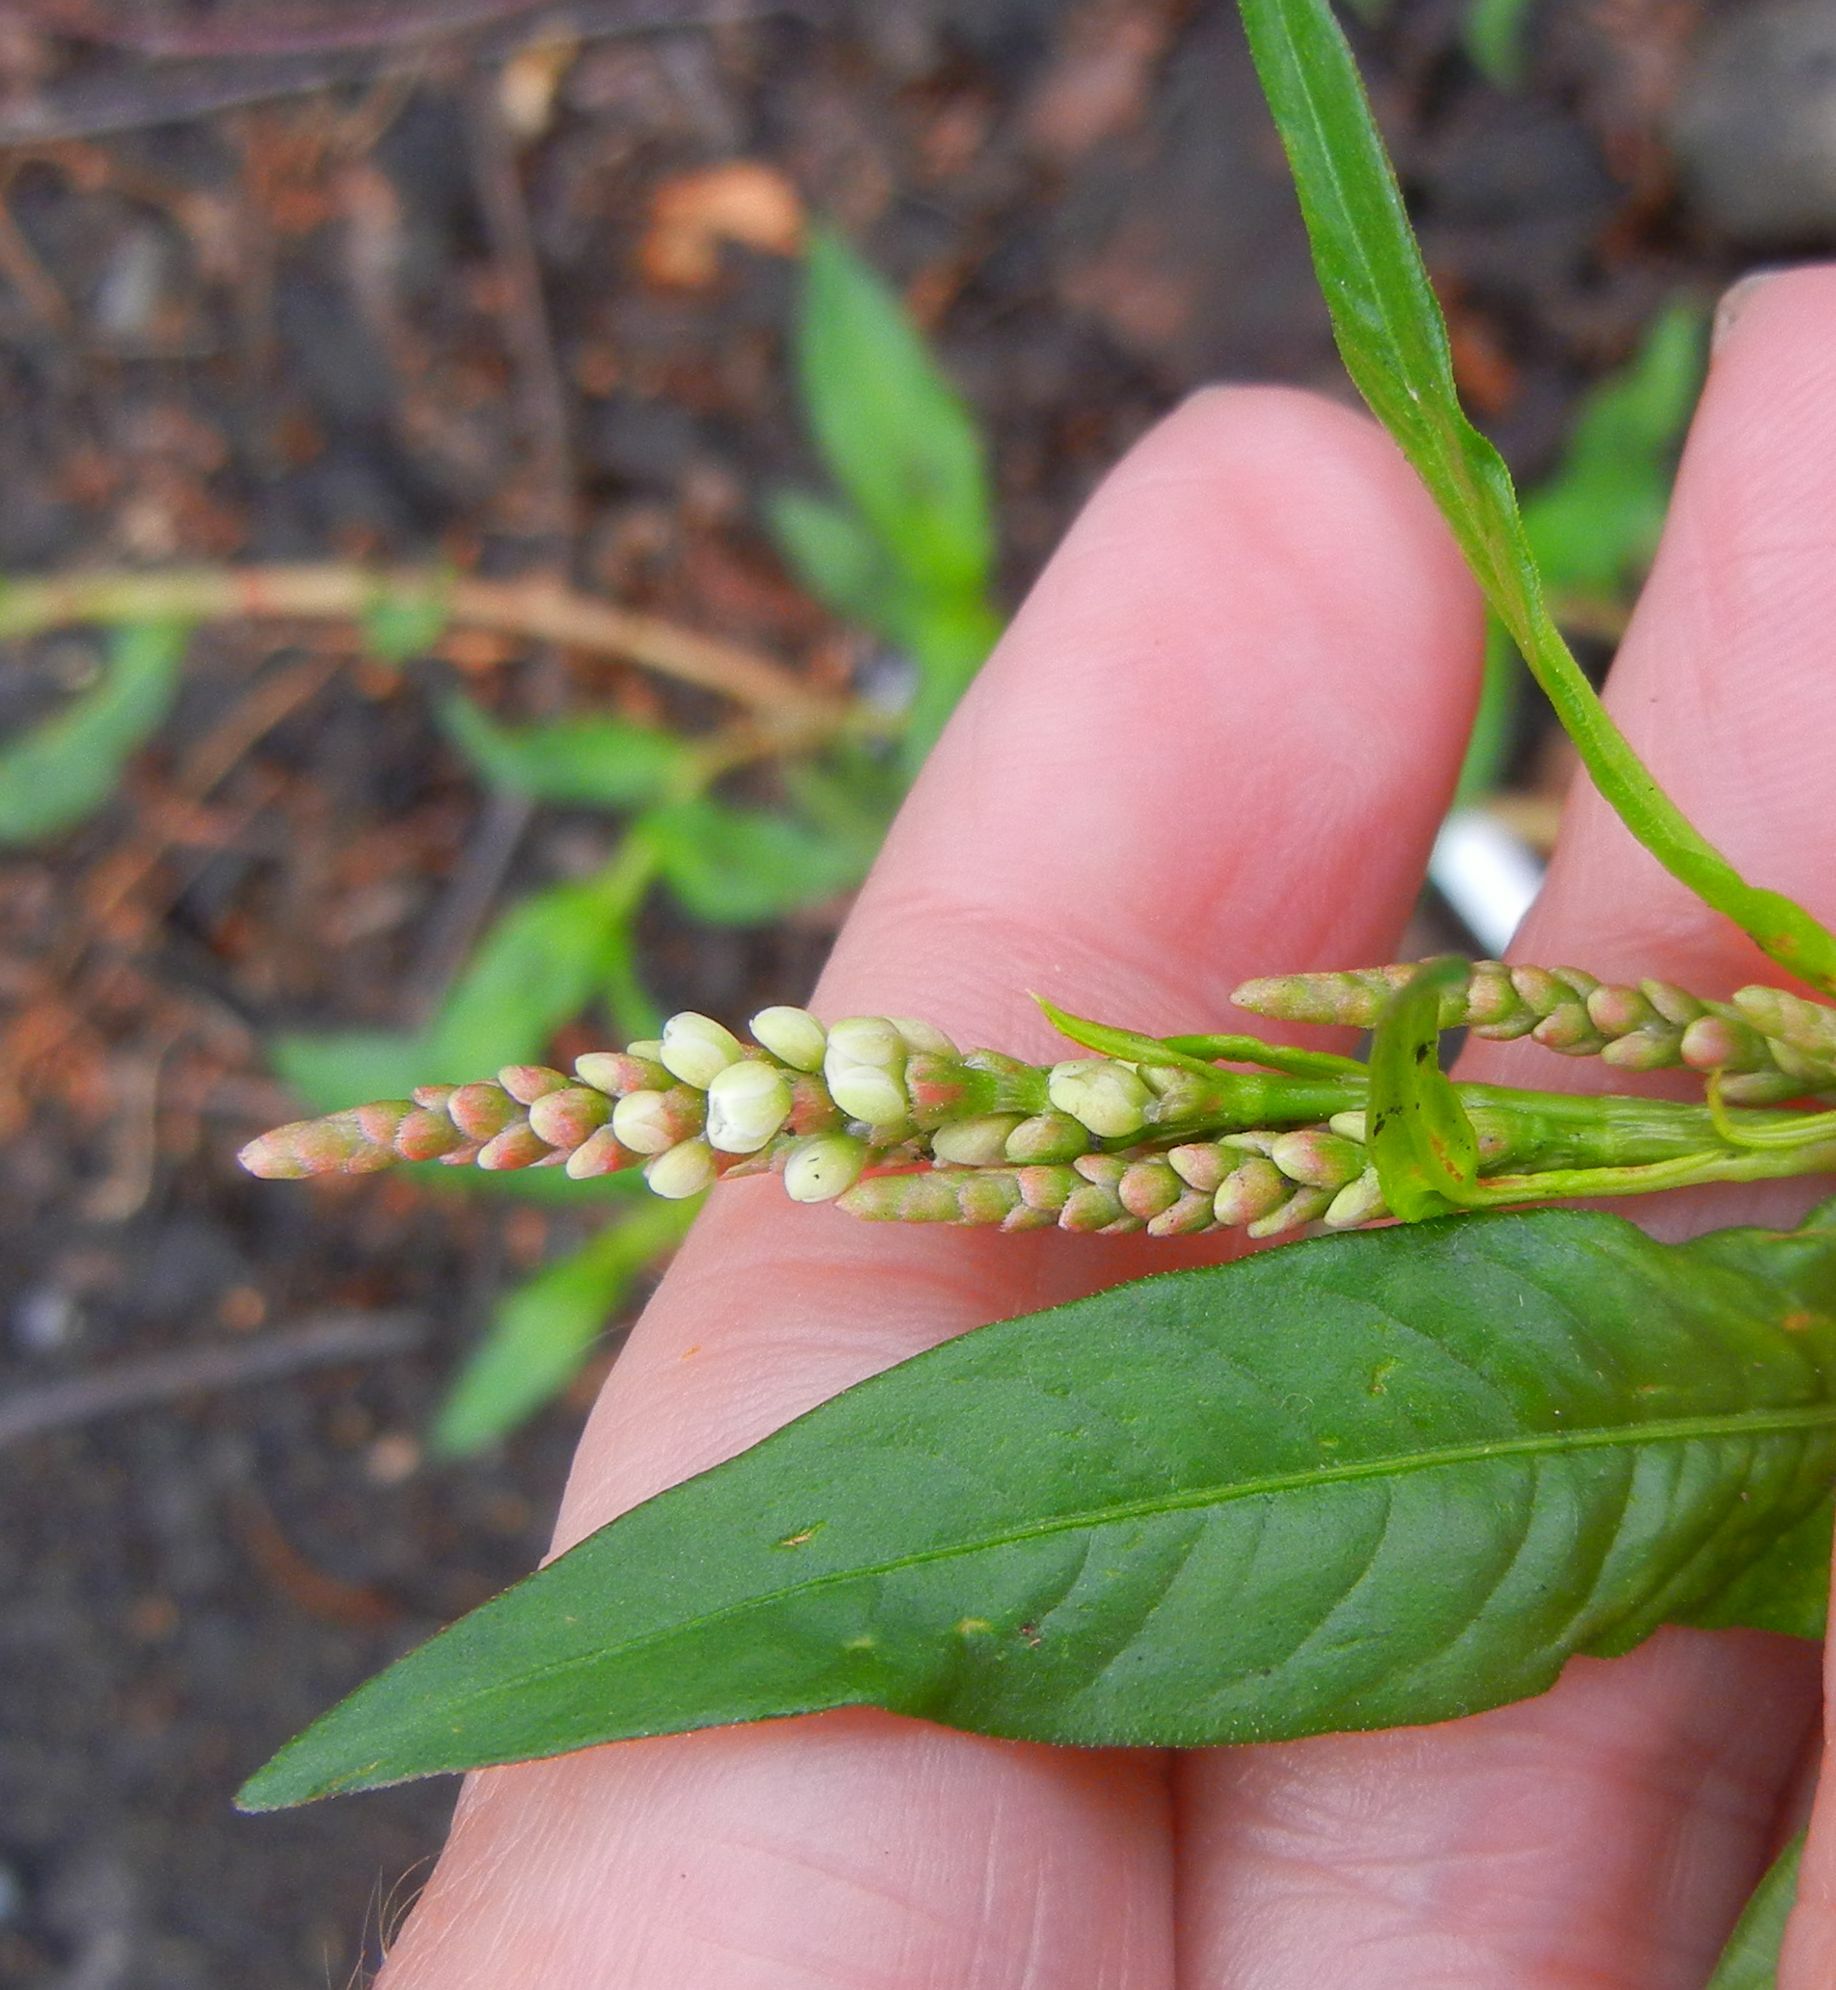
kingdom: Plantae
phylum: Tracheophyta
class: Magnoliopsida
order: Caryophyllales
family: Polygonaceae
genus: Persicaria
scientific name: Persicaria maculosa
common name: Redshank
